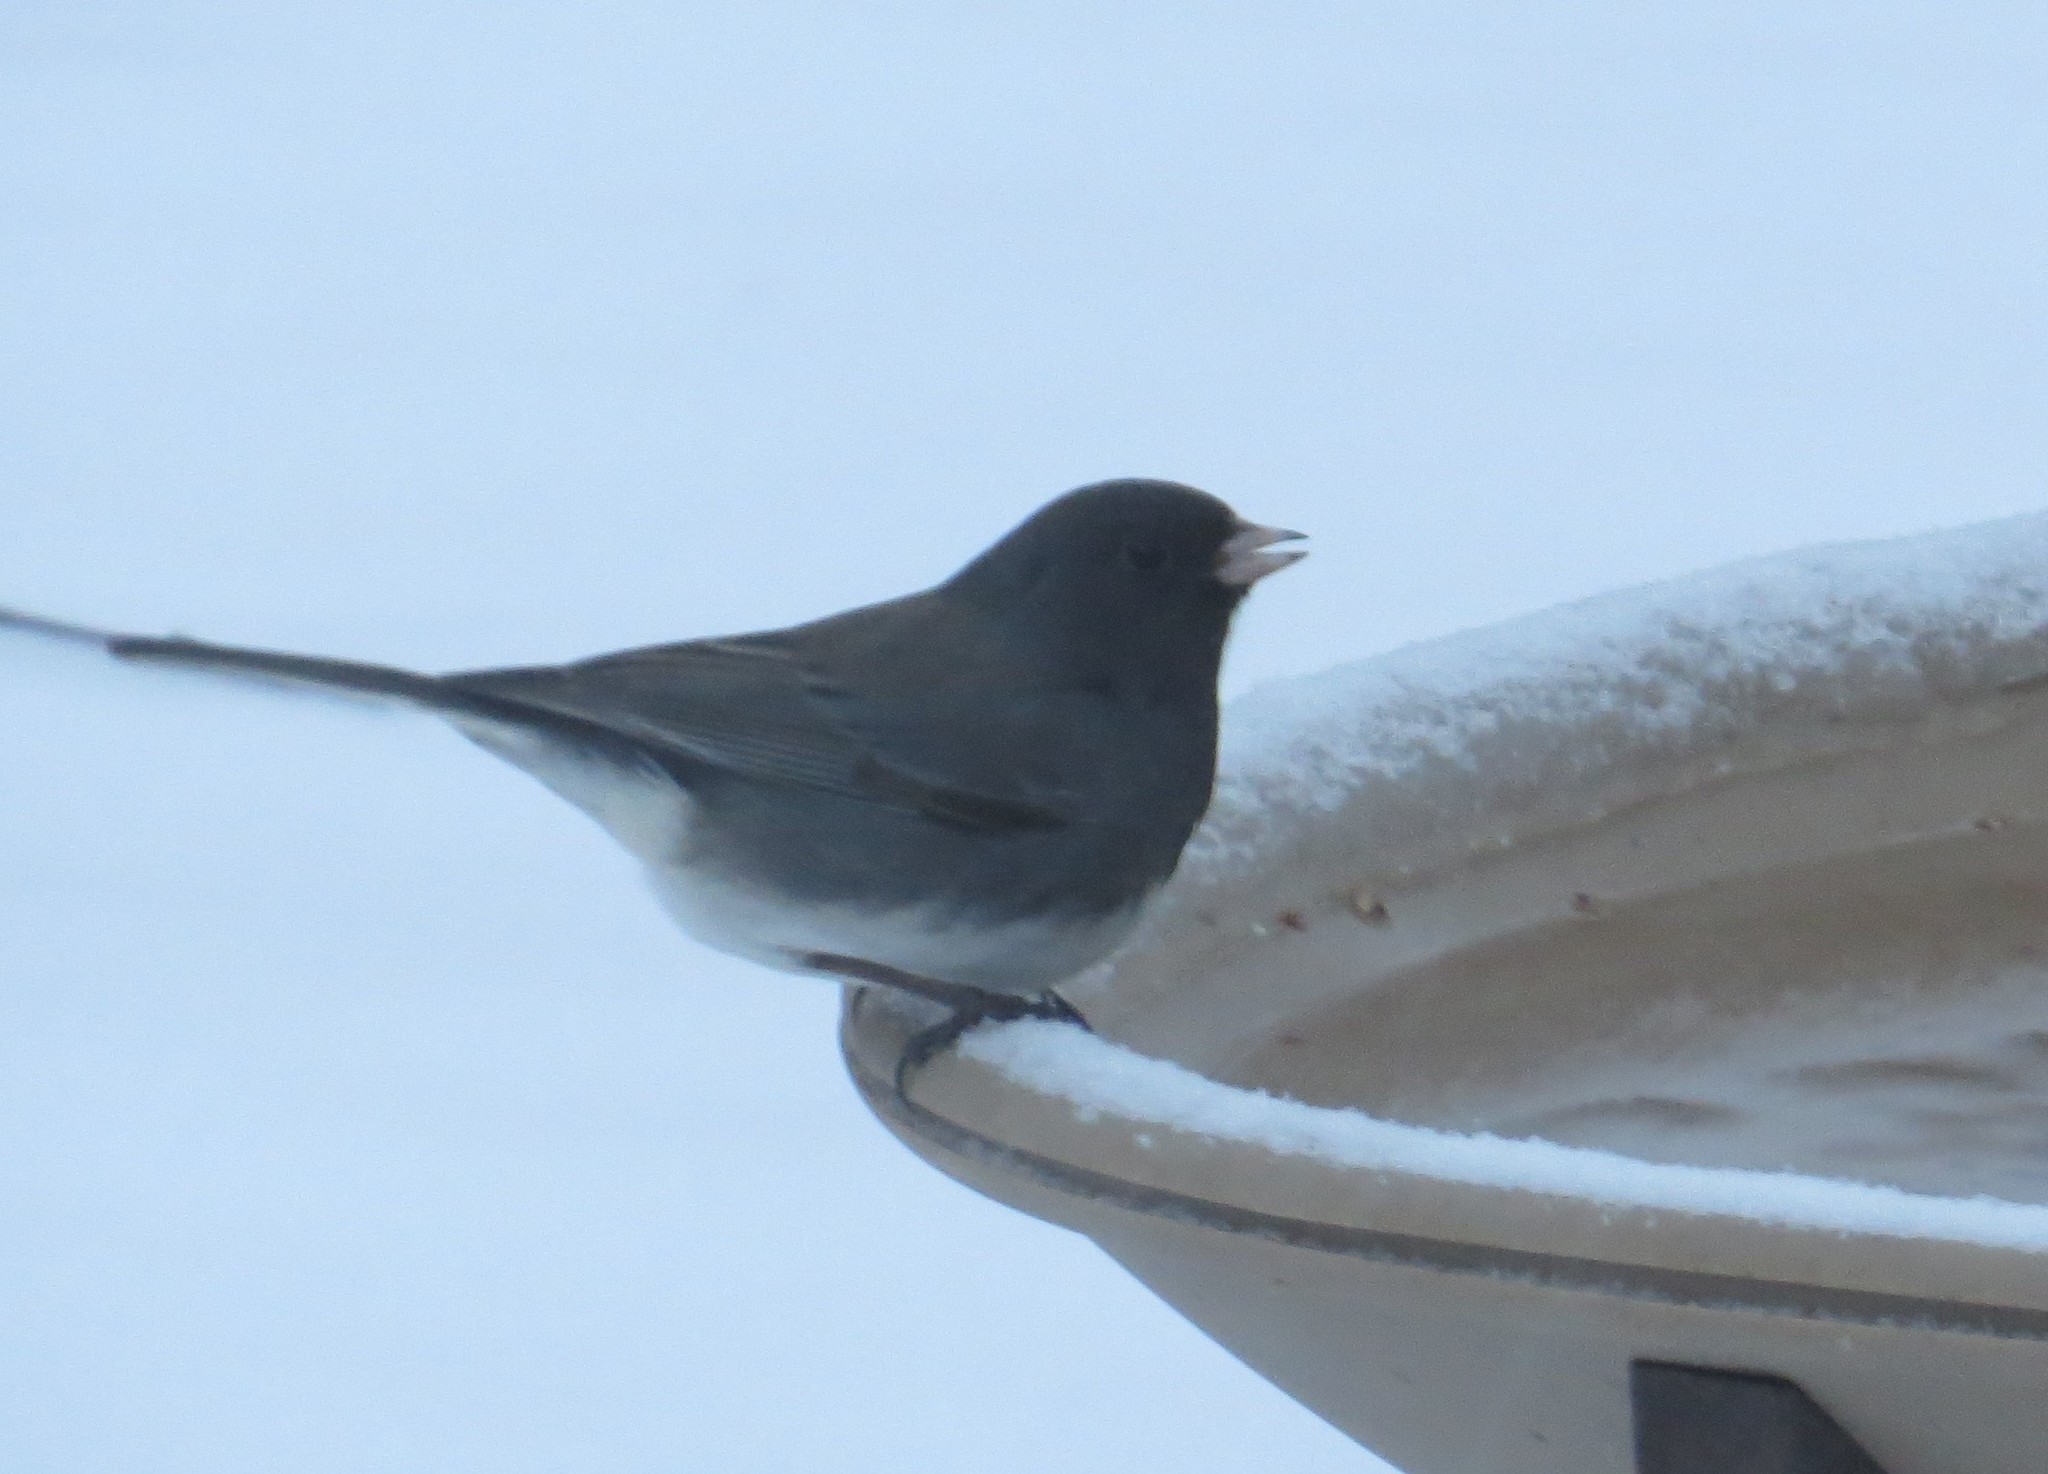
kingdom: Animalia
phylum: Chordata
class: Aves
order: Passeriformes
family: Passerellidae
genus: Junco
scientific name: Junco hyemalis
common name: Dark-eyed junco
